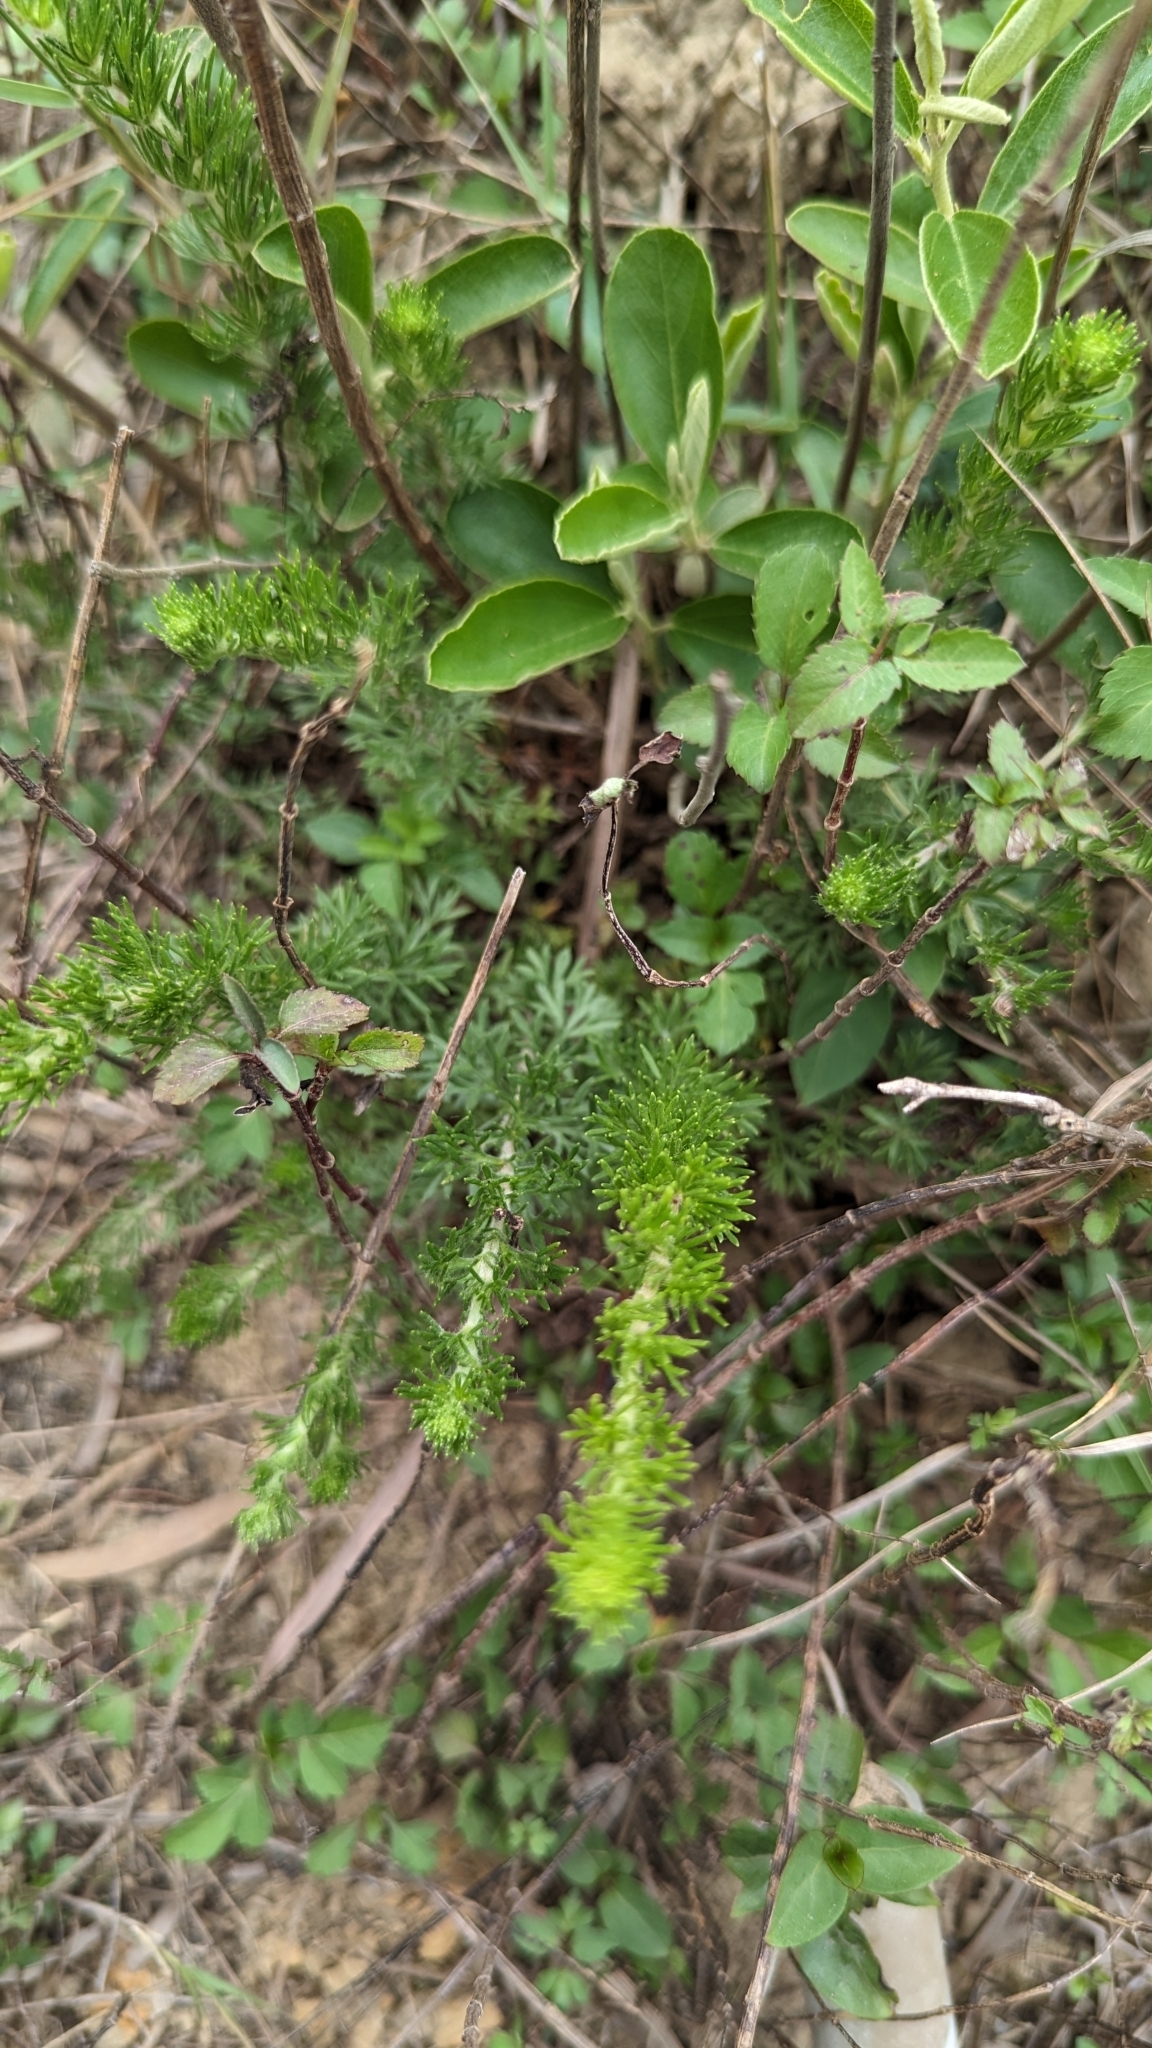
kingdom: Plantae
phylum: Tracheophyta
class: Magnoliopsida
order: Asterales
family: Asteraceae
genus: Artemisia
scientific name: Artemisia capillaris
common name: Yin-chen wormwood
